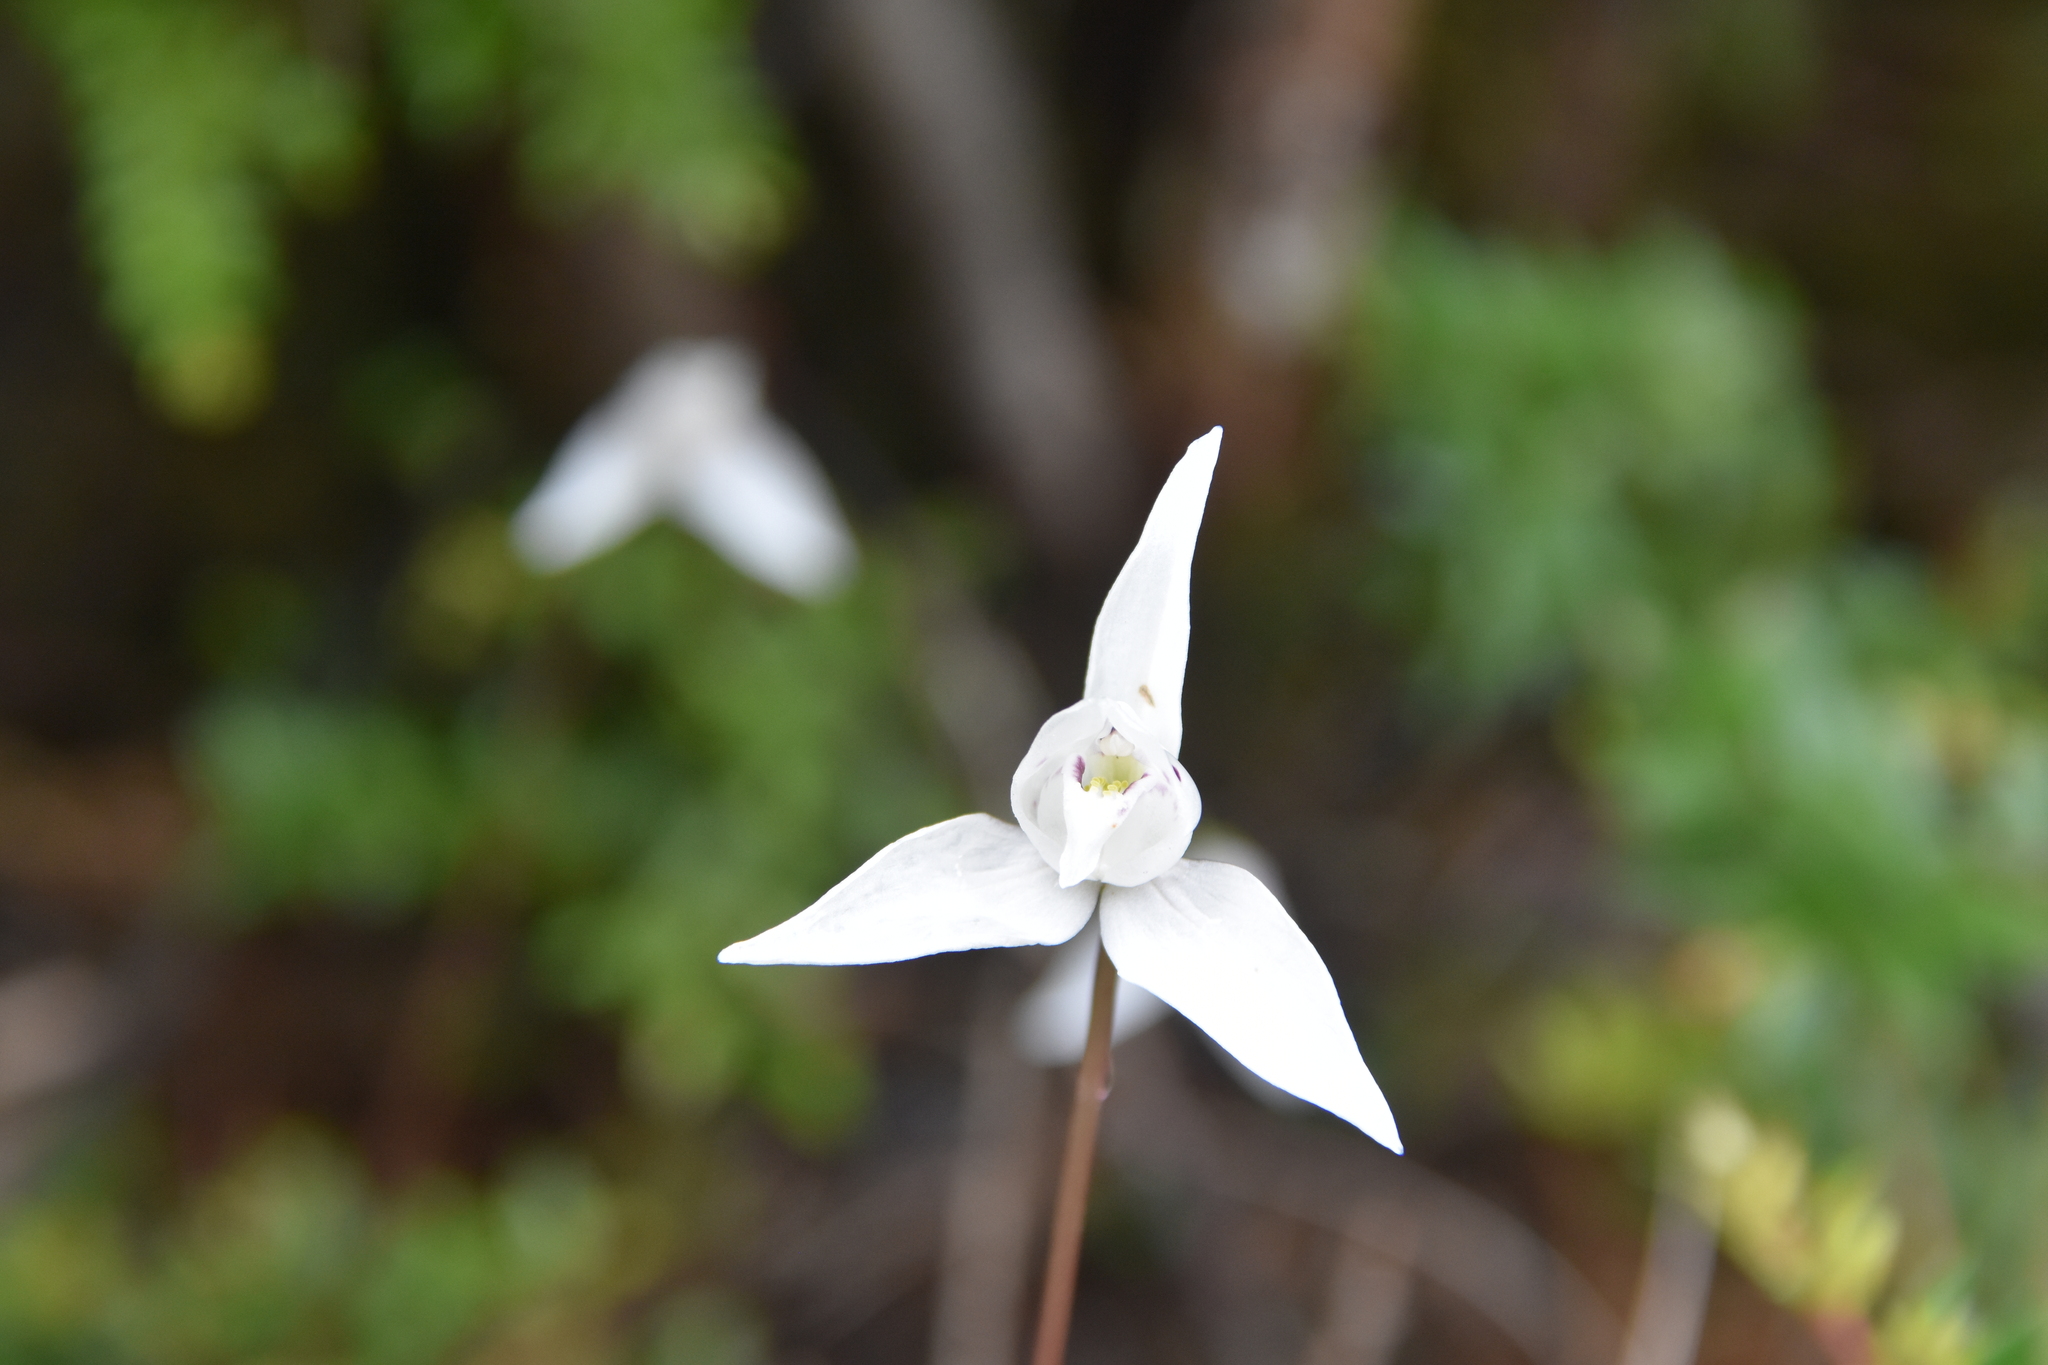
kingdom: Plantae
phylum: Tracheophyta
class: Liliopsida
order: Asparagales
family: Orchidaceae
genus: Codonorchis
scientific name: Codonorchis lessonii
